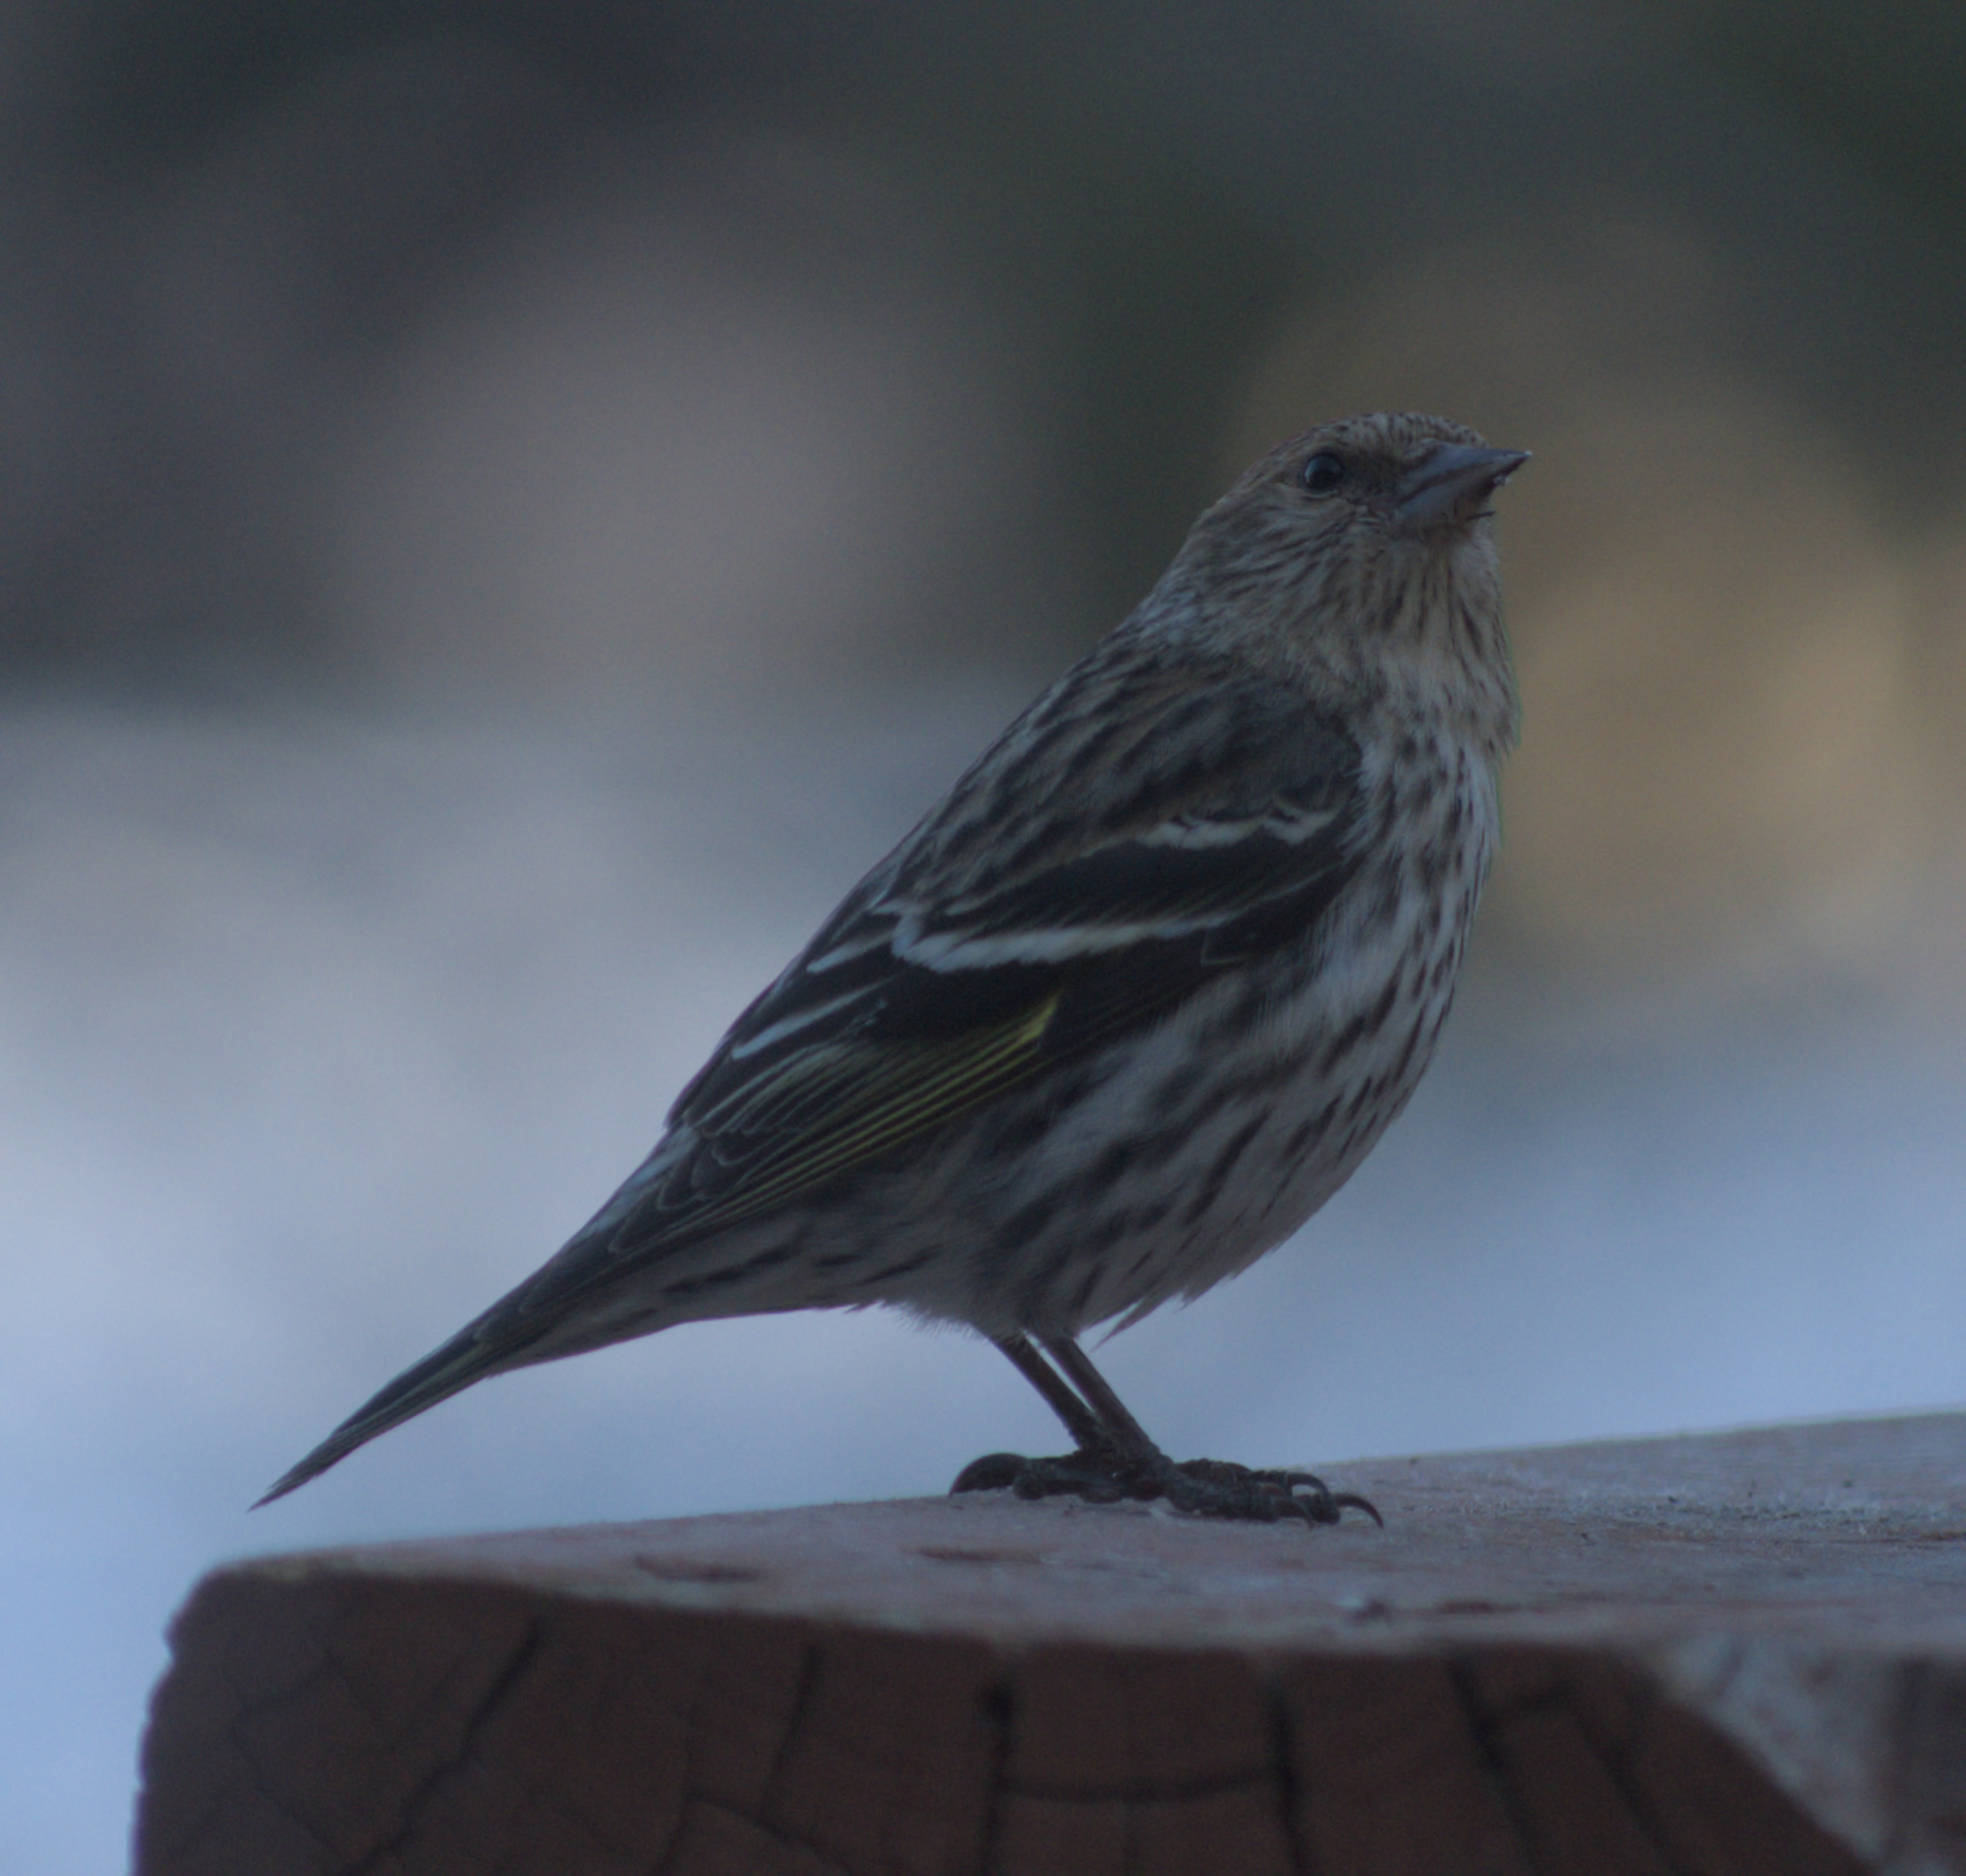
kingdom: Animalia
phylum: Chordata
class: Aves
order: Passeriformes
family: Fringillidae
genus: Spinus
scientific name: Spinus pinus
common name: Pine siskin
